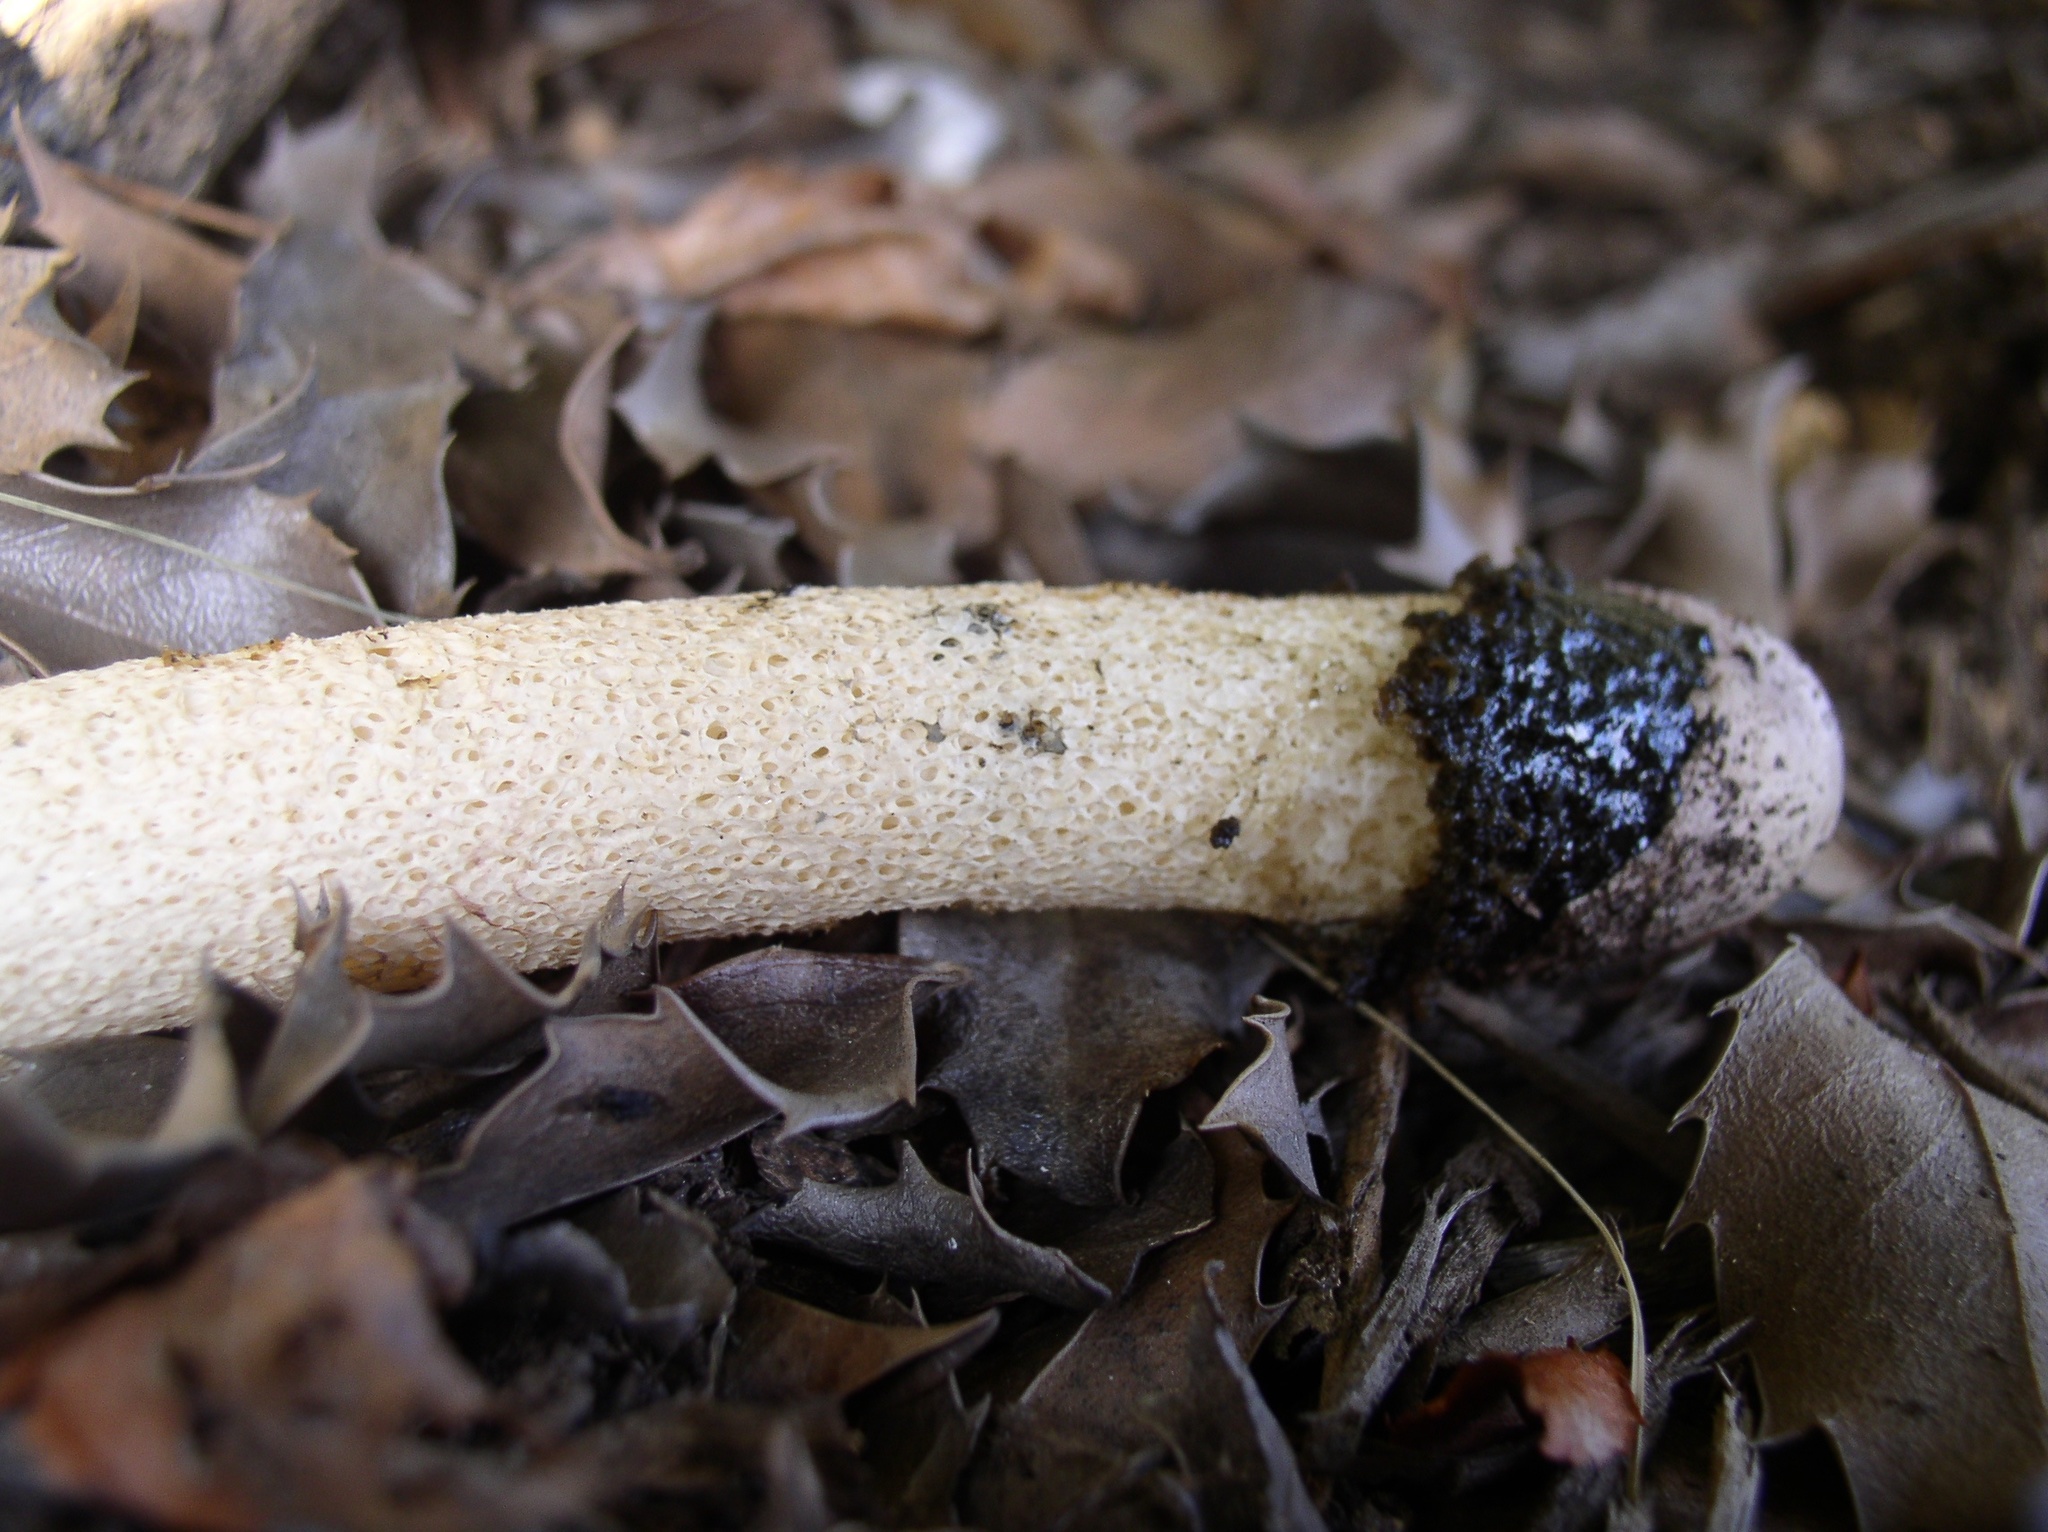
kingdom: Fungi
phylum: Basidiomycota
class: Agaricomycetes
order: Phallales
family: Phallaceae
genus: Phallus
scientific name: Phallus ravenelii
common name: Ravenel's stinkhorn
